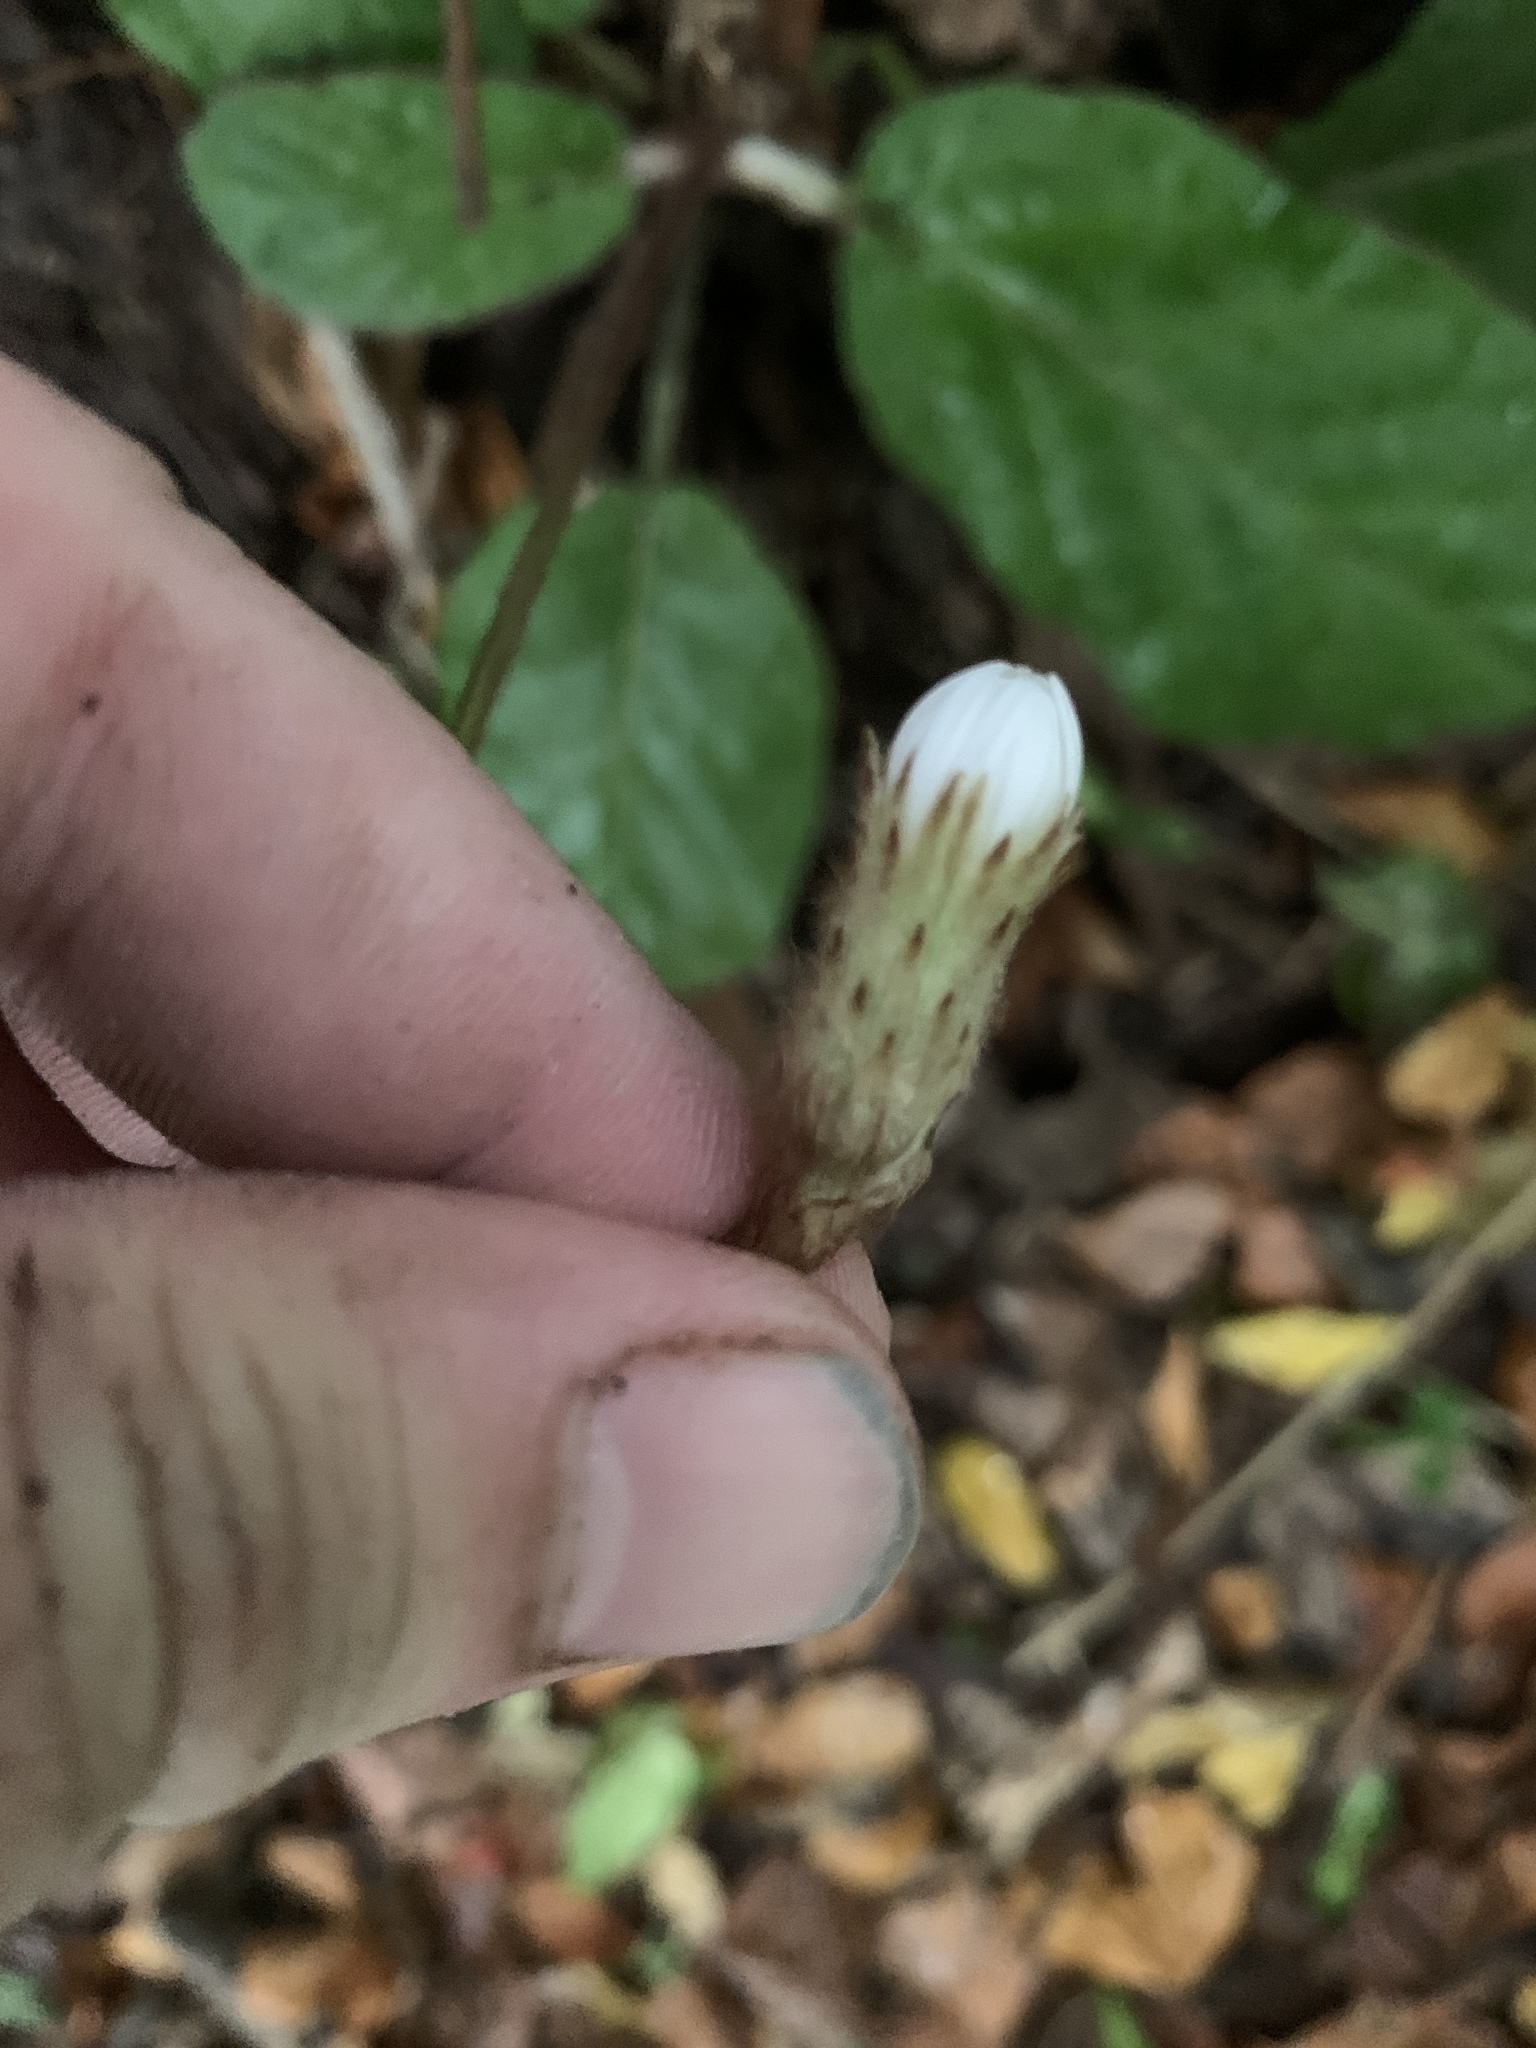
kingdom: Plantae
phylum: Tracheophyta
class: Magnoliopsida
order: Asterales
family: Asteraceae
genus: Piloselloides
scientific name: Piloselloides cordata
